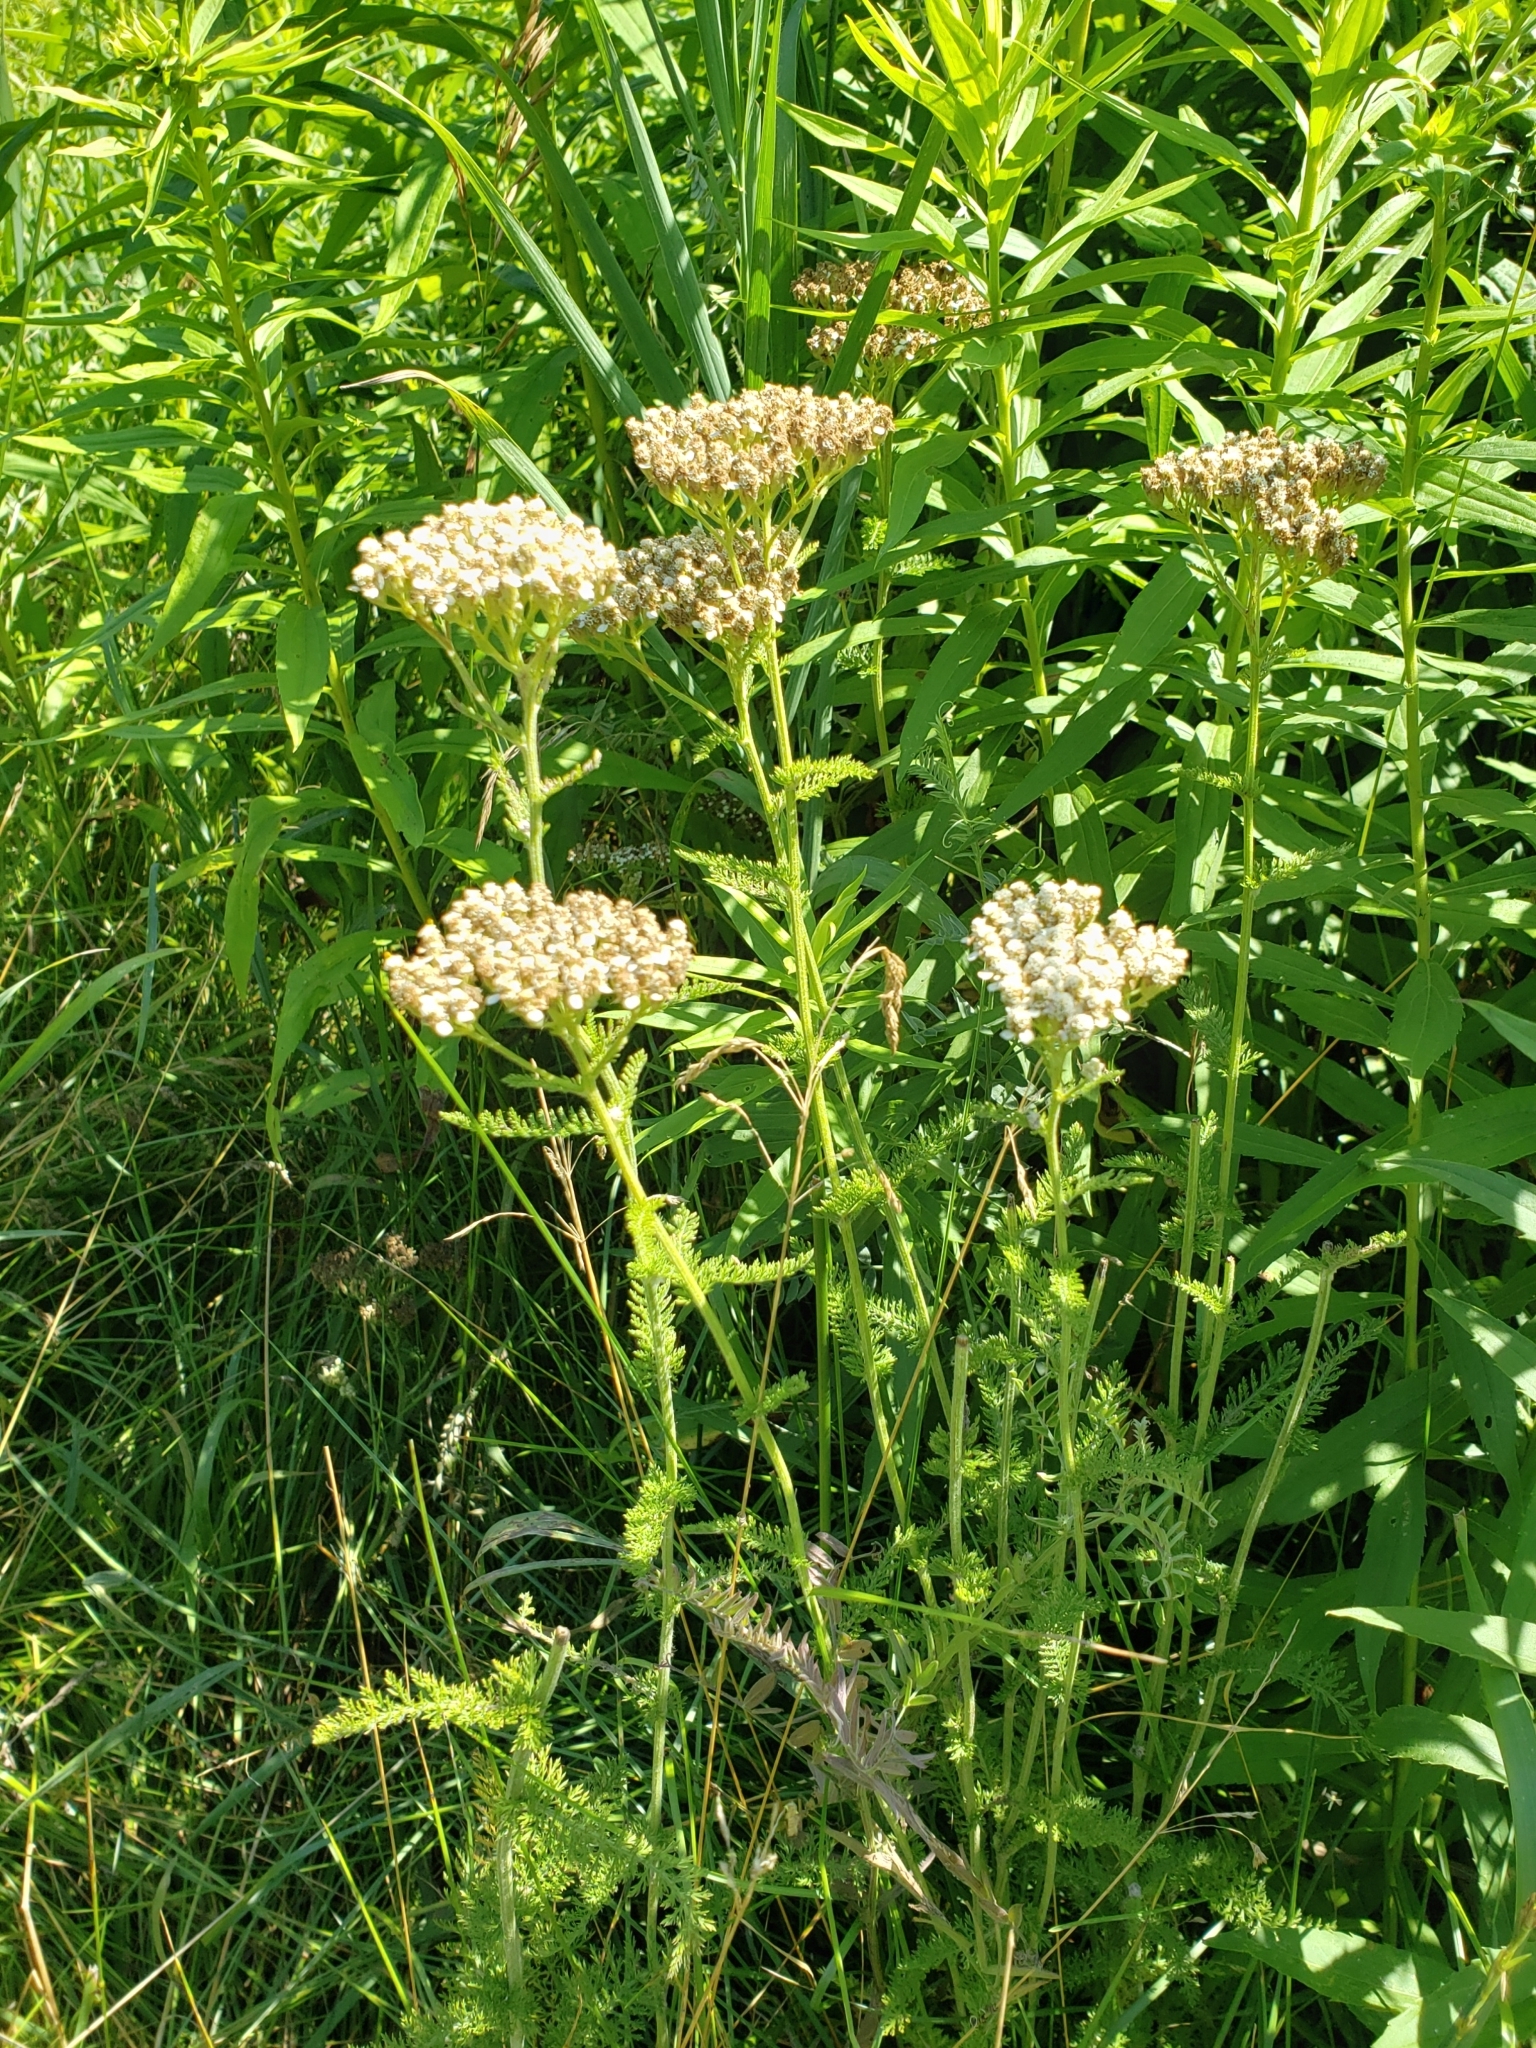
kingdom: Plantae
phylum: Tracheophyta
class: Magnoliopsida
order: Asterales
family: Asteraceae
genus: Achillea
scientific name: Achillea millefolium
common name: Yarrow
